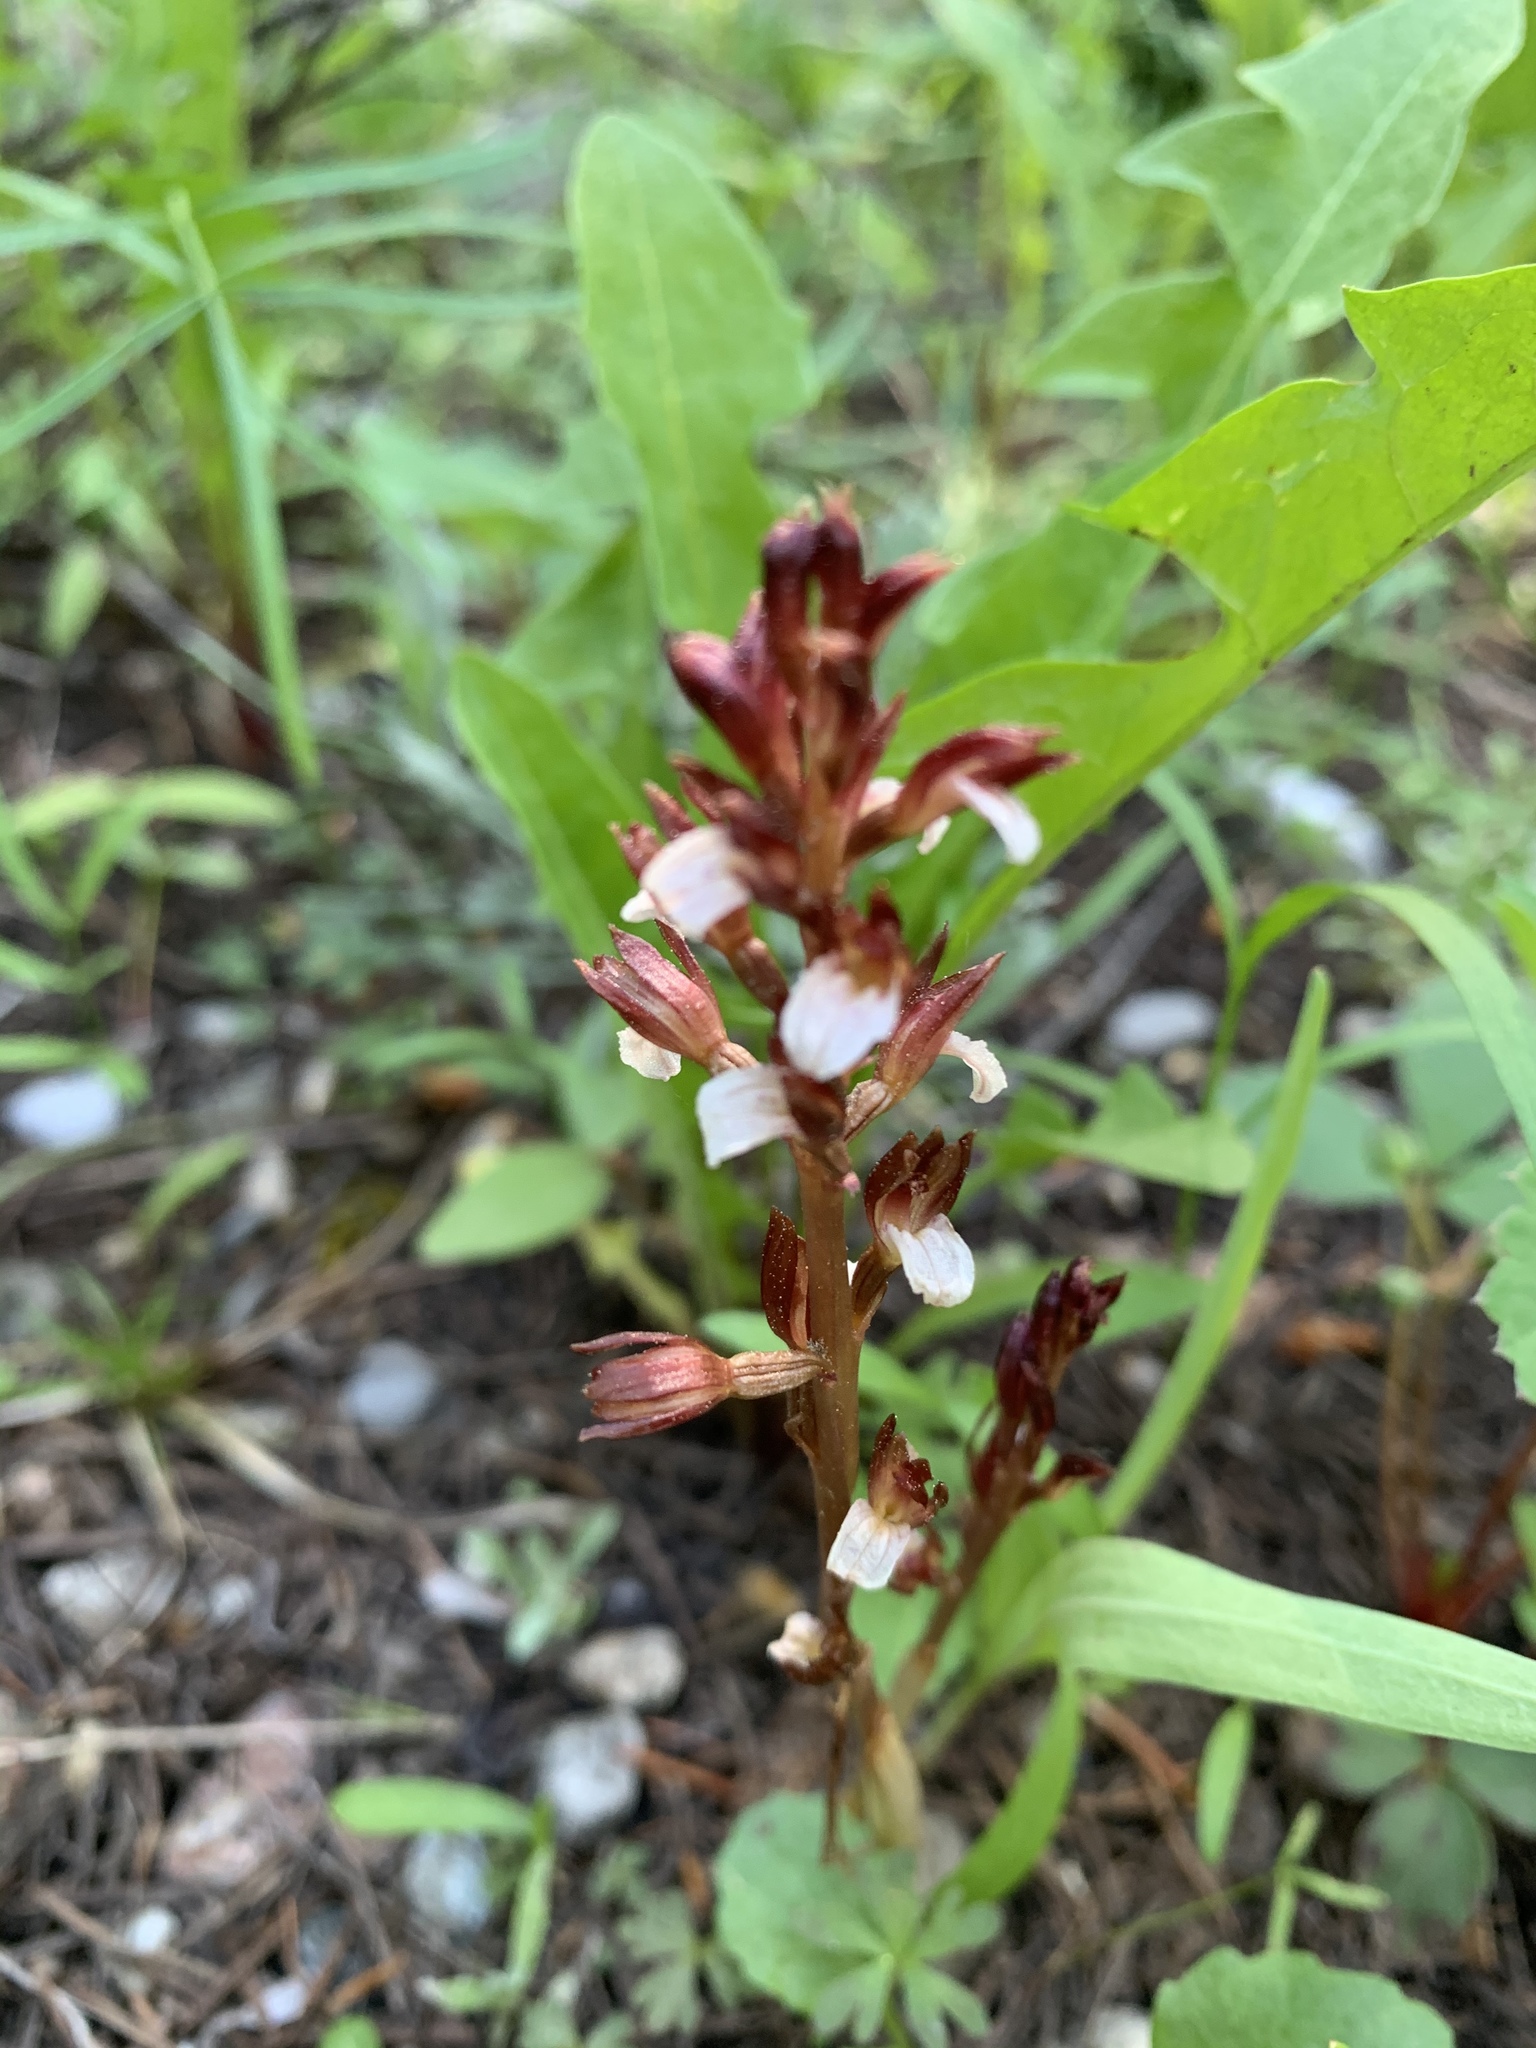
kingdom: Plantae
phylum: Tracheophyta
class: Liliopsida
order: Asparagales
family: Orchidaceae
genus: Corallorhiza
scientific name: Corallorhiza wisteriana
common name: Spring coralroot
